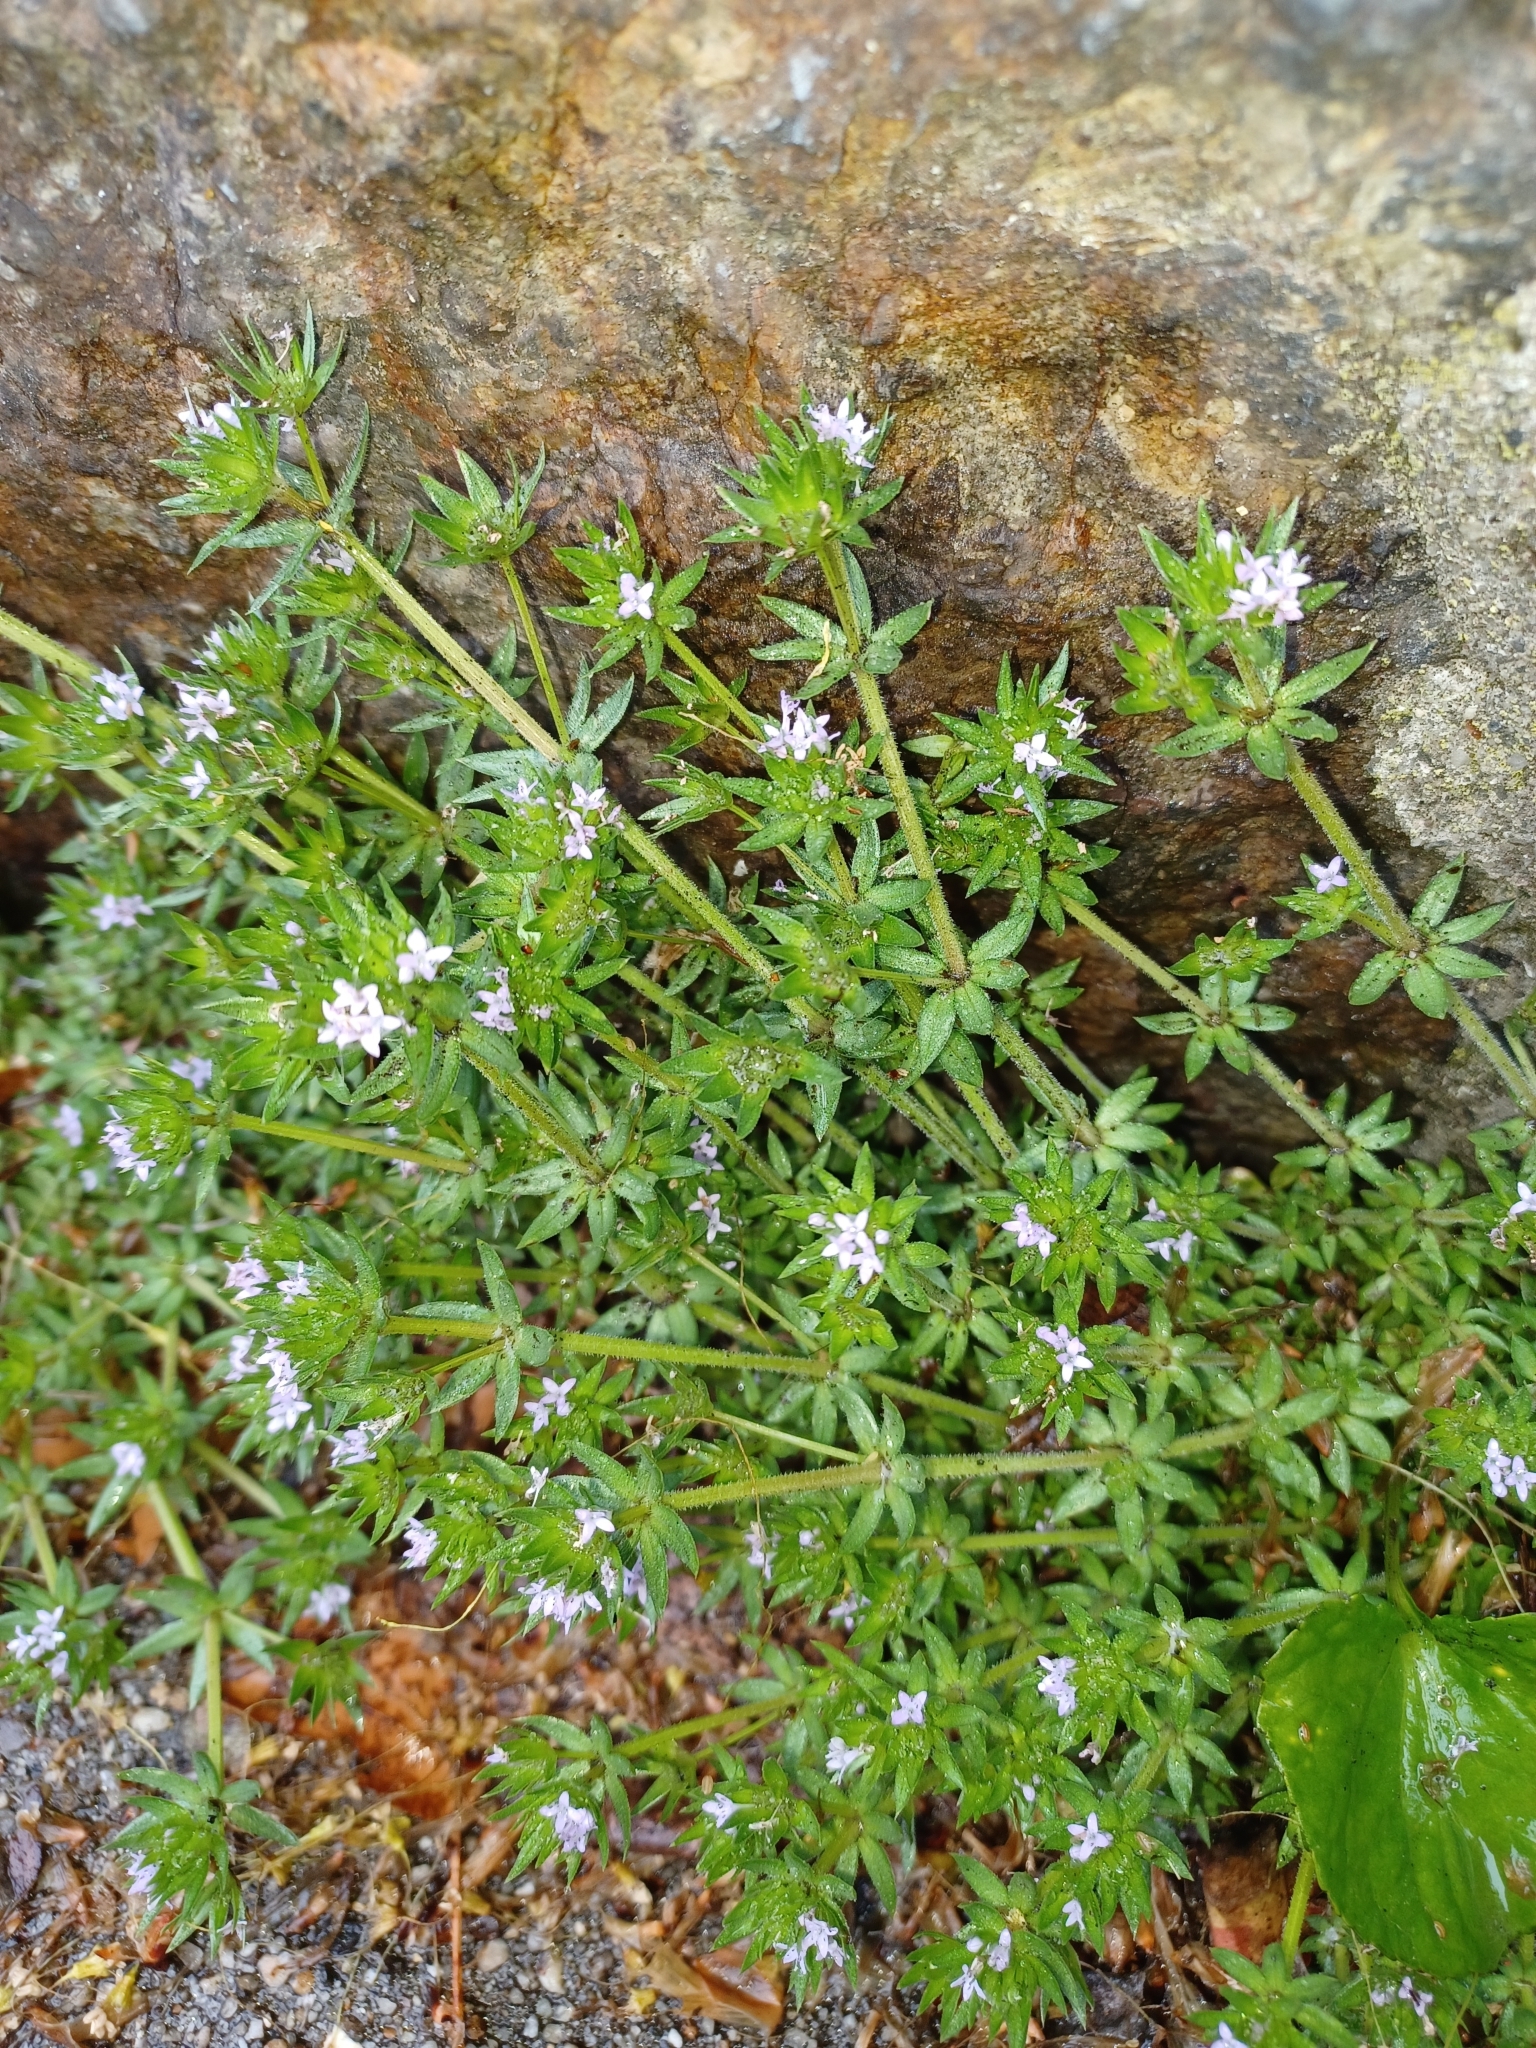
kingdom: Plantae
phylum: Tracheophyta
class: Magnoliopsida
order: Gentianales
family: Rubiaceae
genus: Sherardia
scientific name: Sherardia arvensis
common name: Field madder
